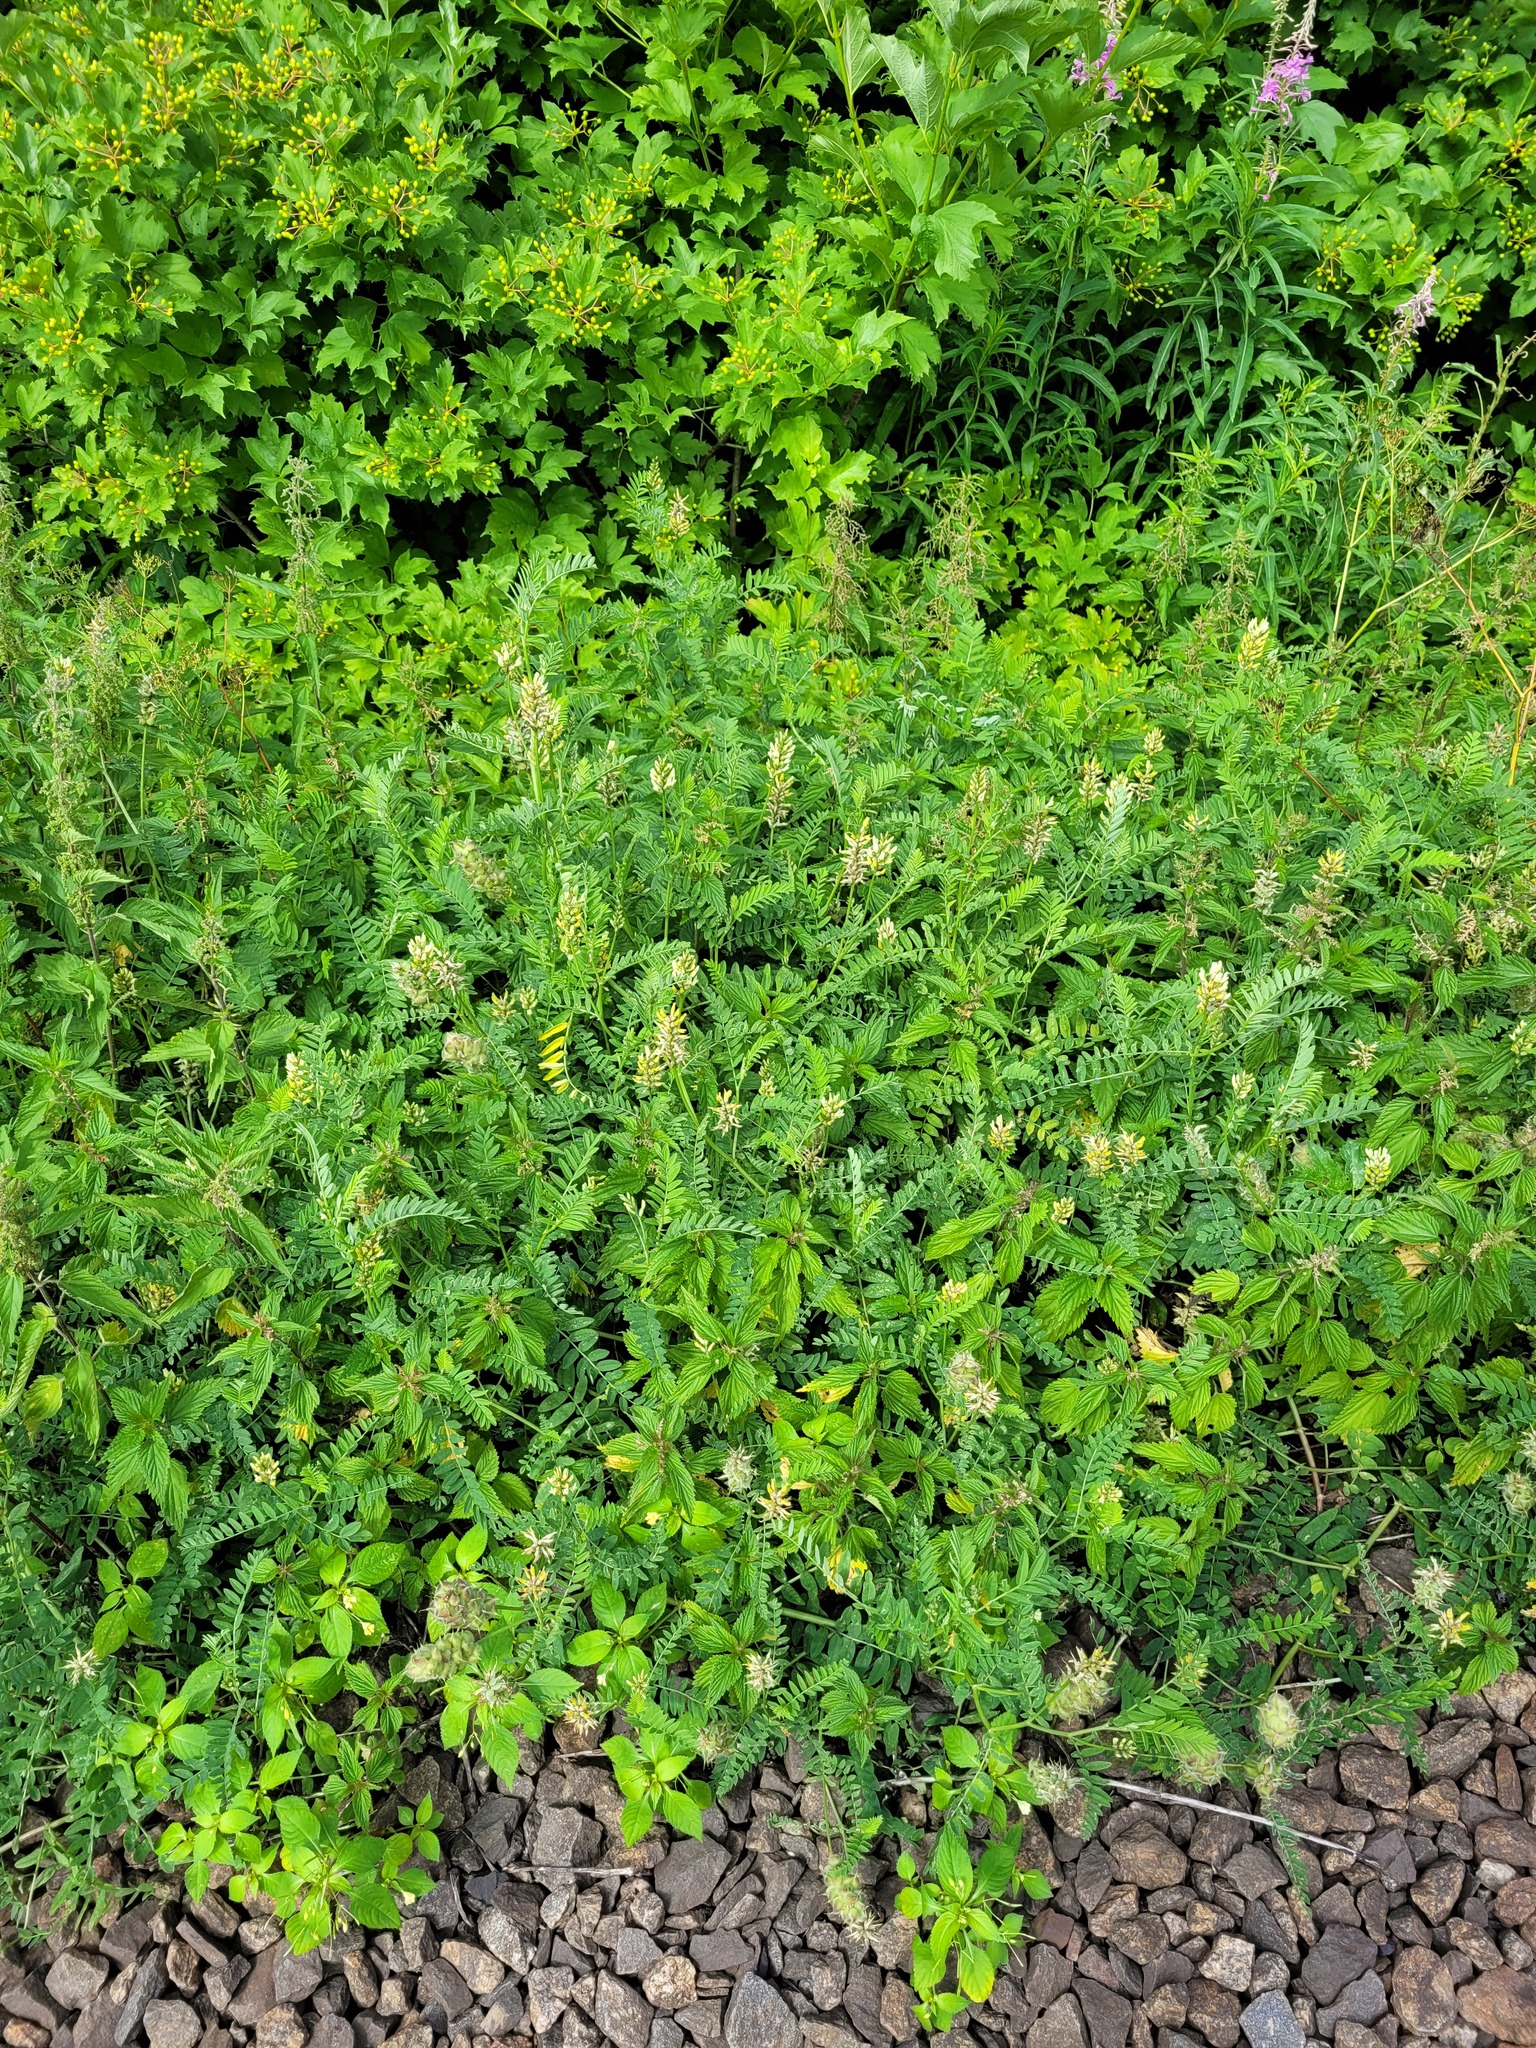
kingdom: Plantae
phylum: Tracheophyta
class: Magnoliopsida
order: Fabales
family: Fabaceae
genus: Astragalus
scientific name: Astragalus cicer
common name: Chick-pea milk-vetch
